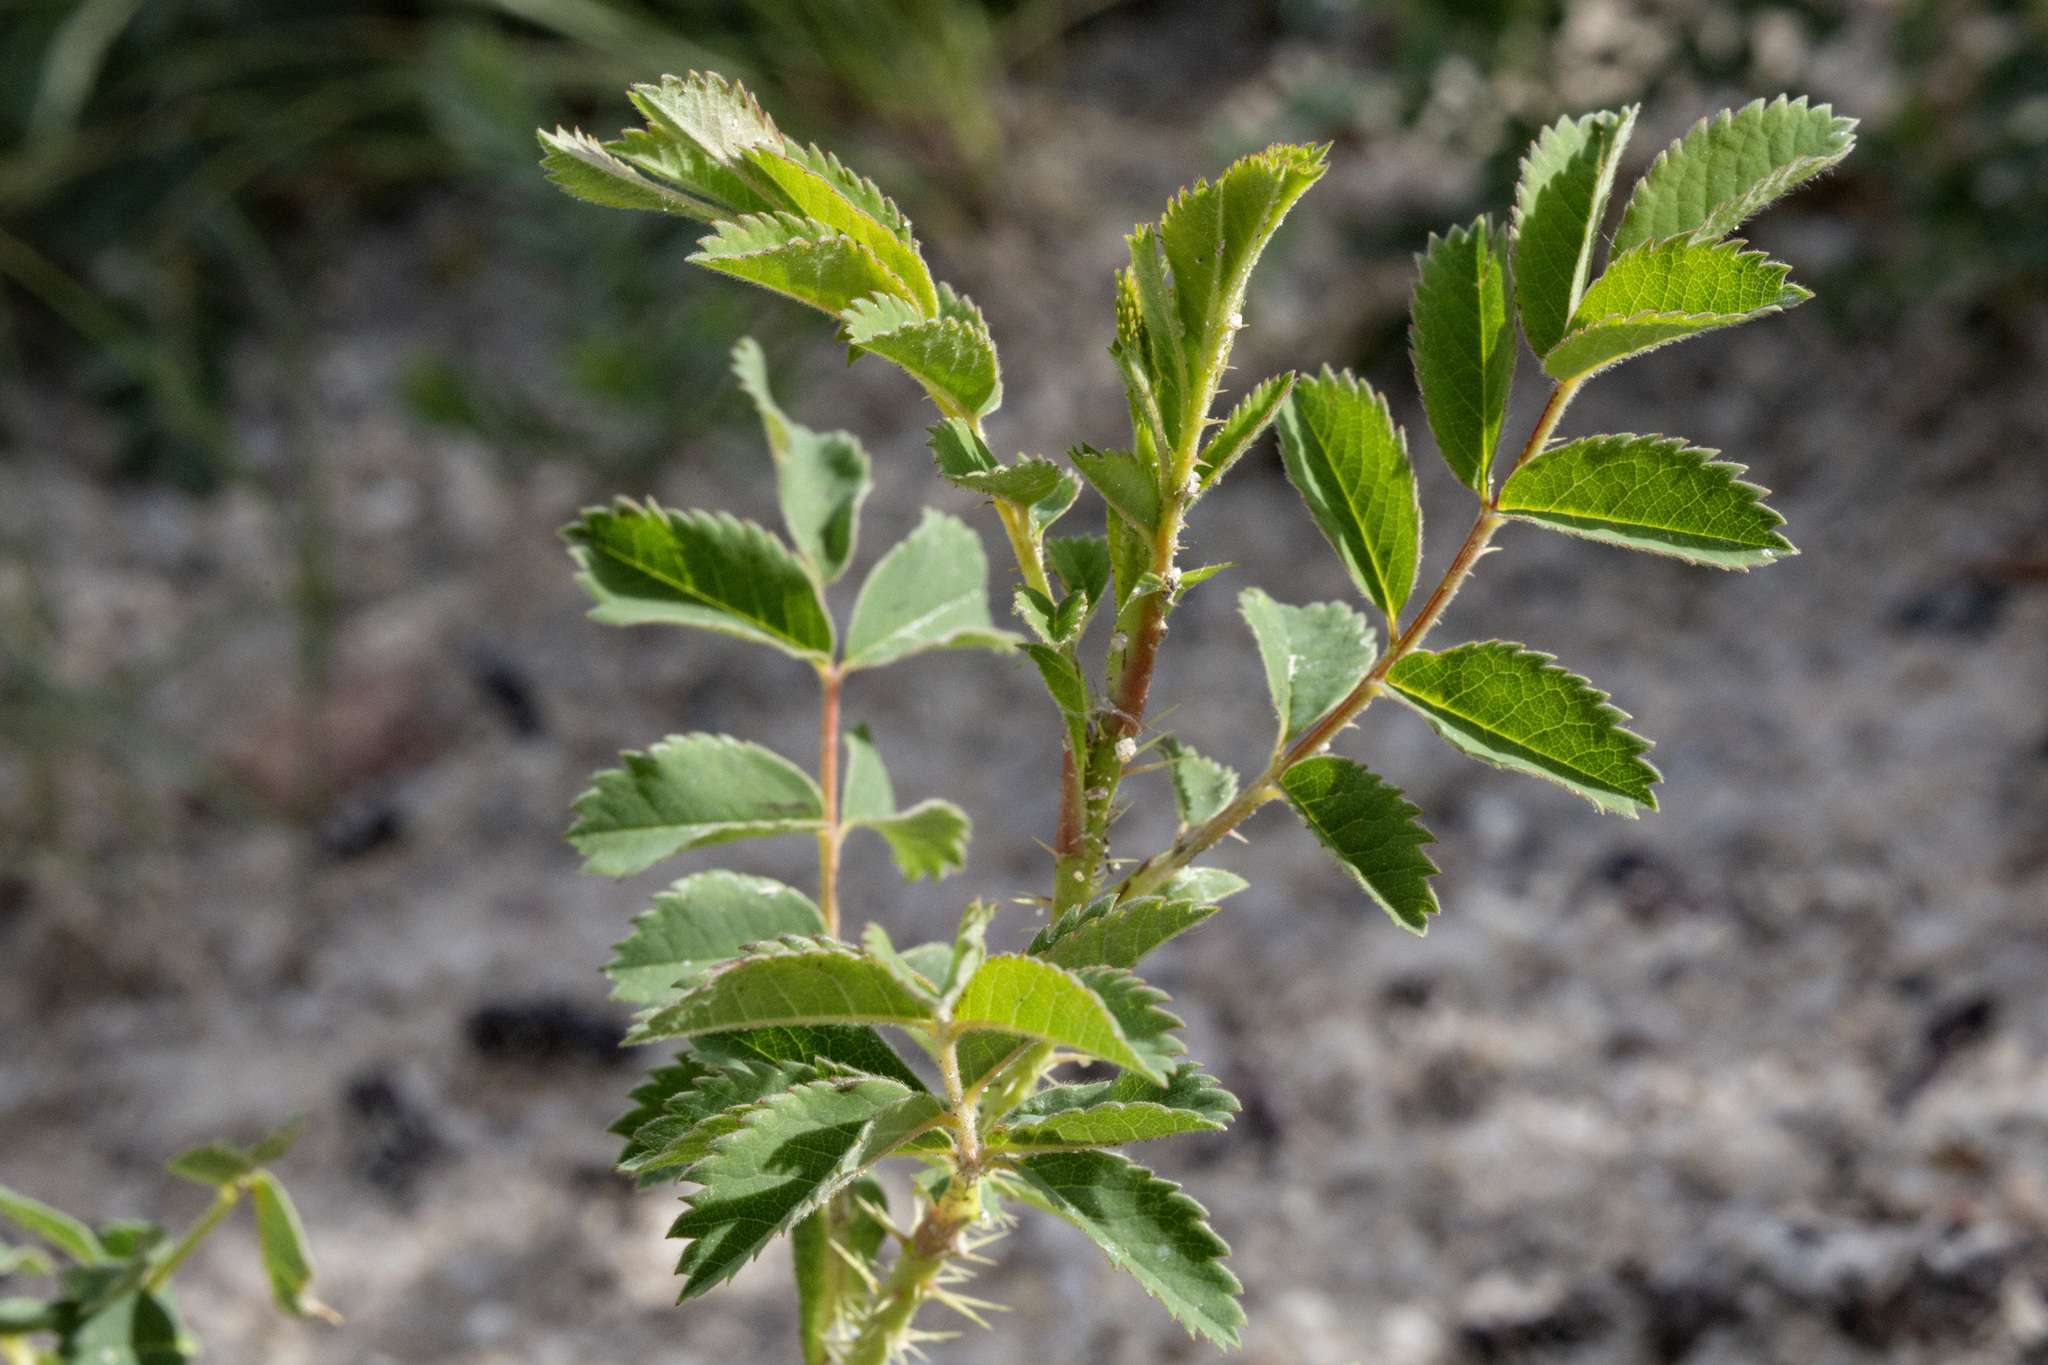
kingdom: Plantae
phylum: Tracheophyta
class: Magnoliopsida
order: Rosales
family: Rosaceae
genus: Rosa
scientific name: Rosa arkansana
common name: Prairie rose
